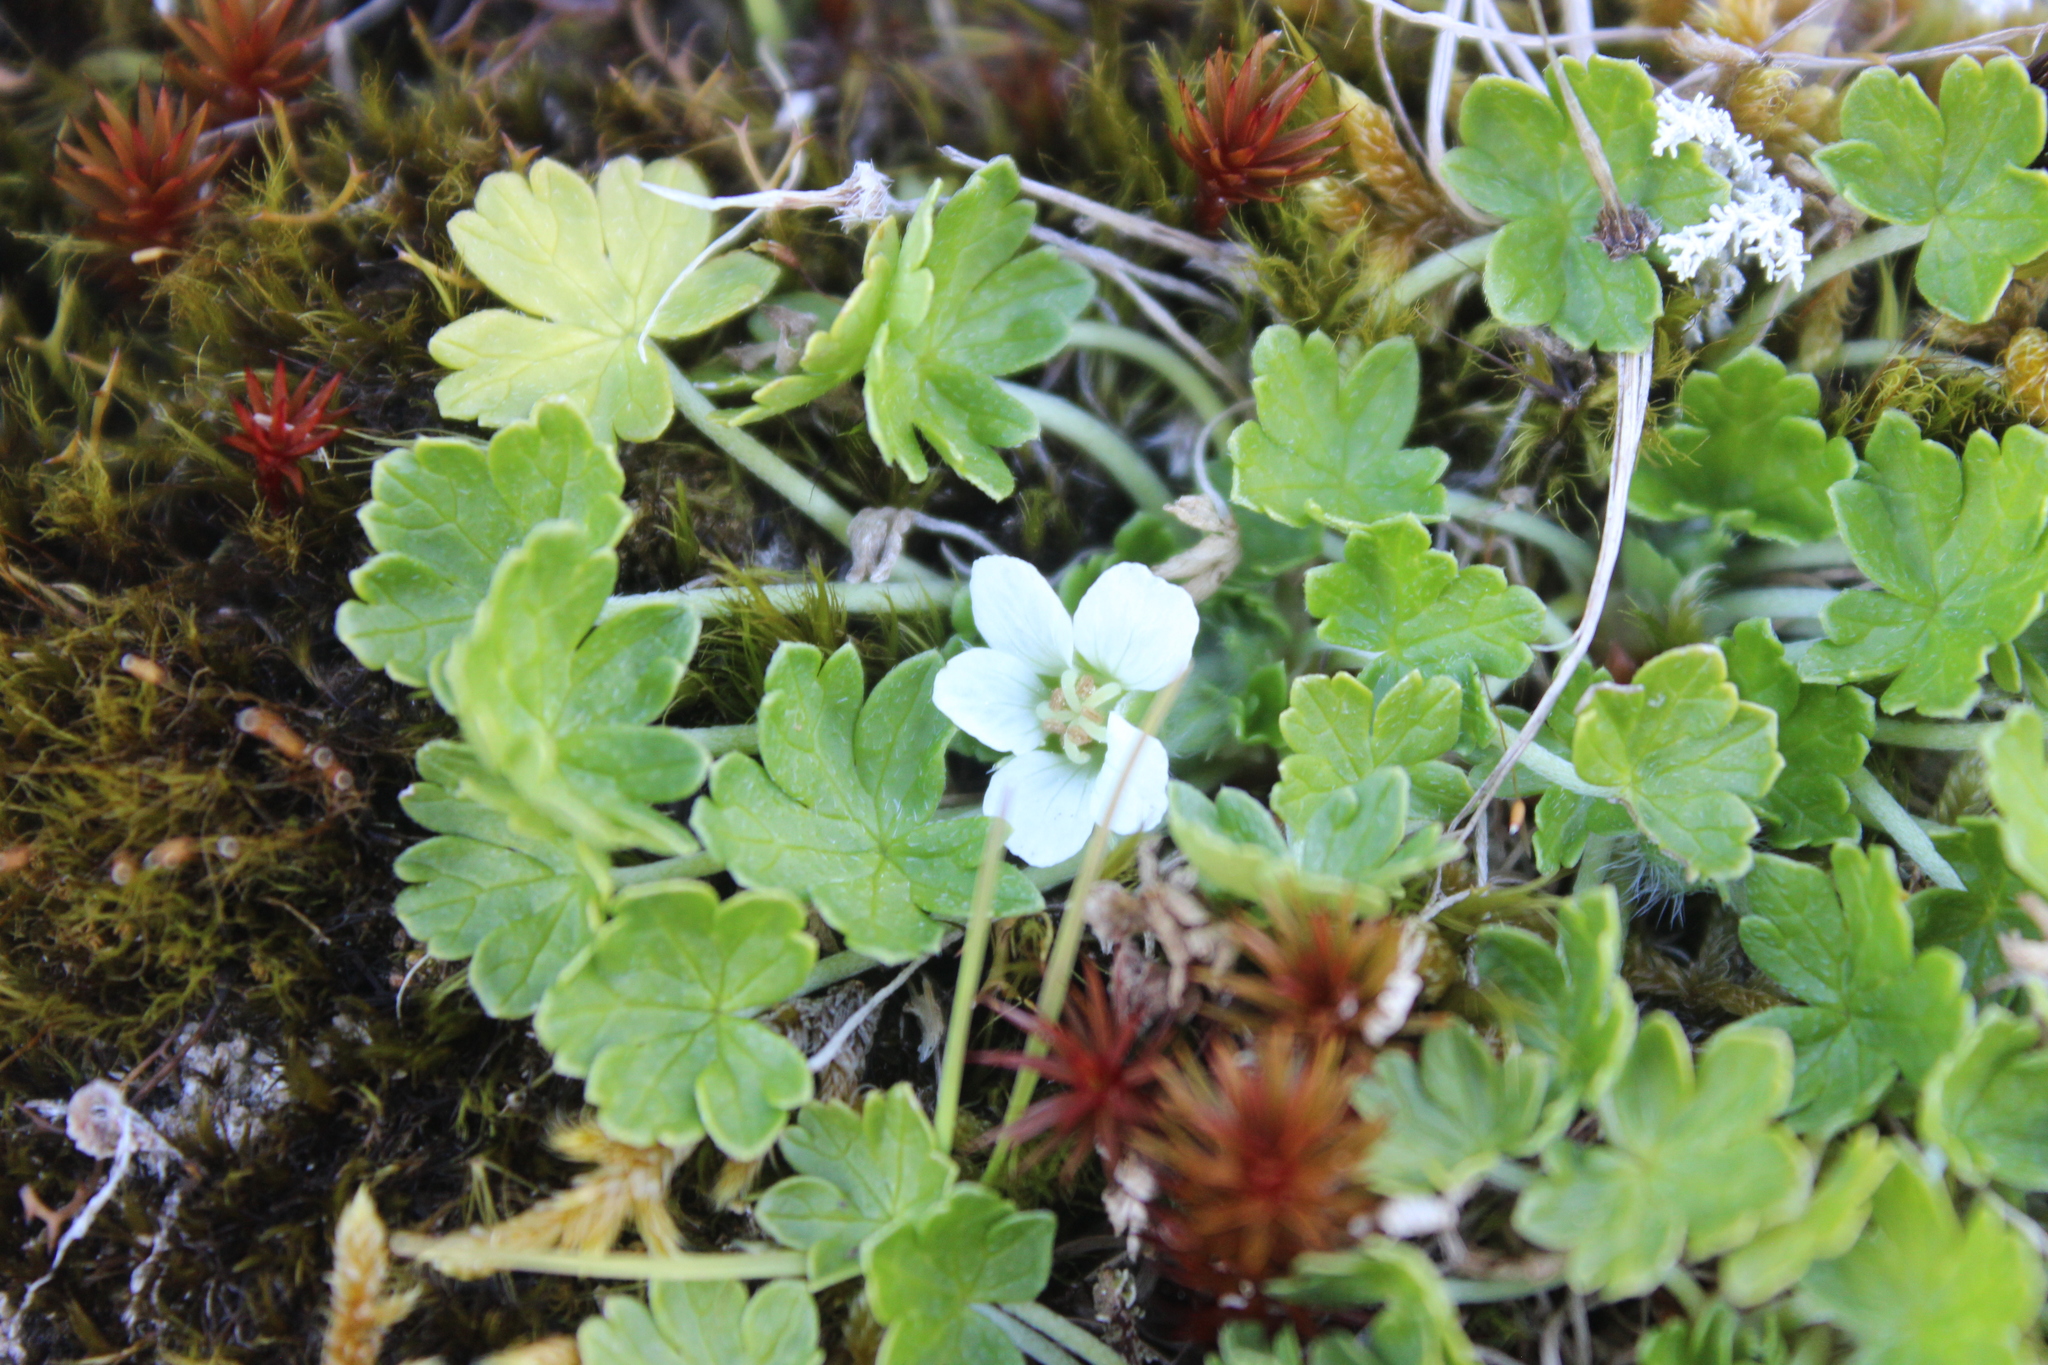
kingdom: Plantae
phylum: Tracheophyta
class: Magnoliopsida
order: Geraniales
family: Geraniaceae
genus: Geranium
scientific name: Geranium brevicaule
